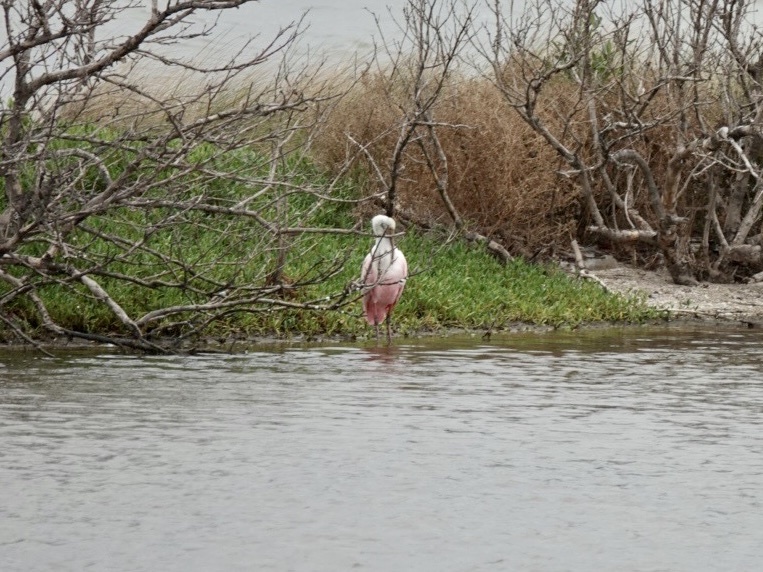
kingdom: Animalia
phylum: Chordata
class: Aves
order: Pelecaniformes
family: Threskiornithidae
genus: Platalea
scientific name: Platalea ajaja
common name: Roseate spoonbill
